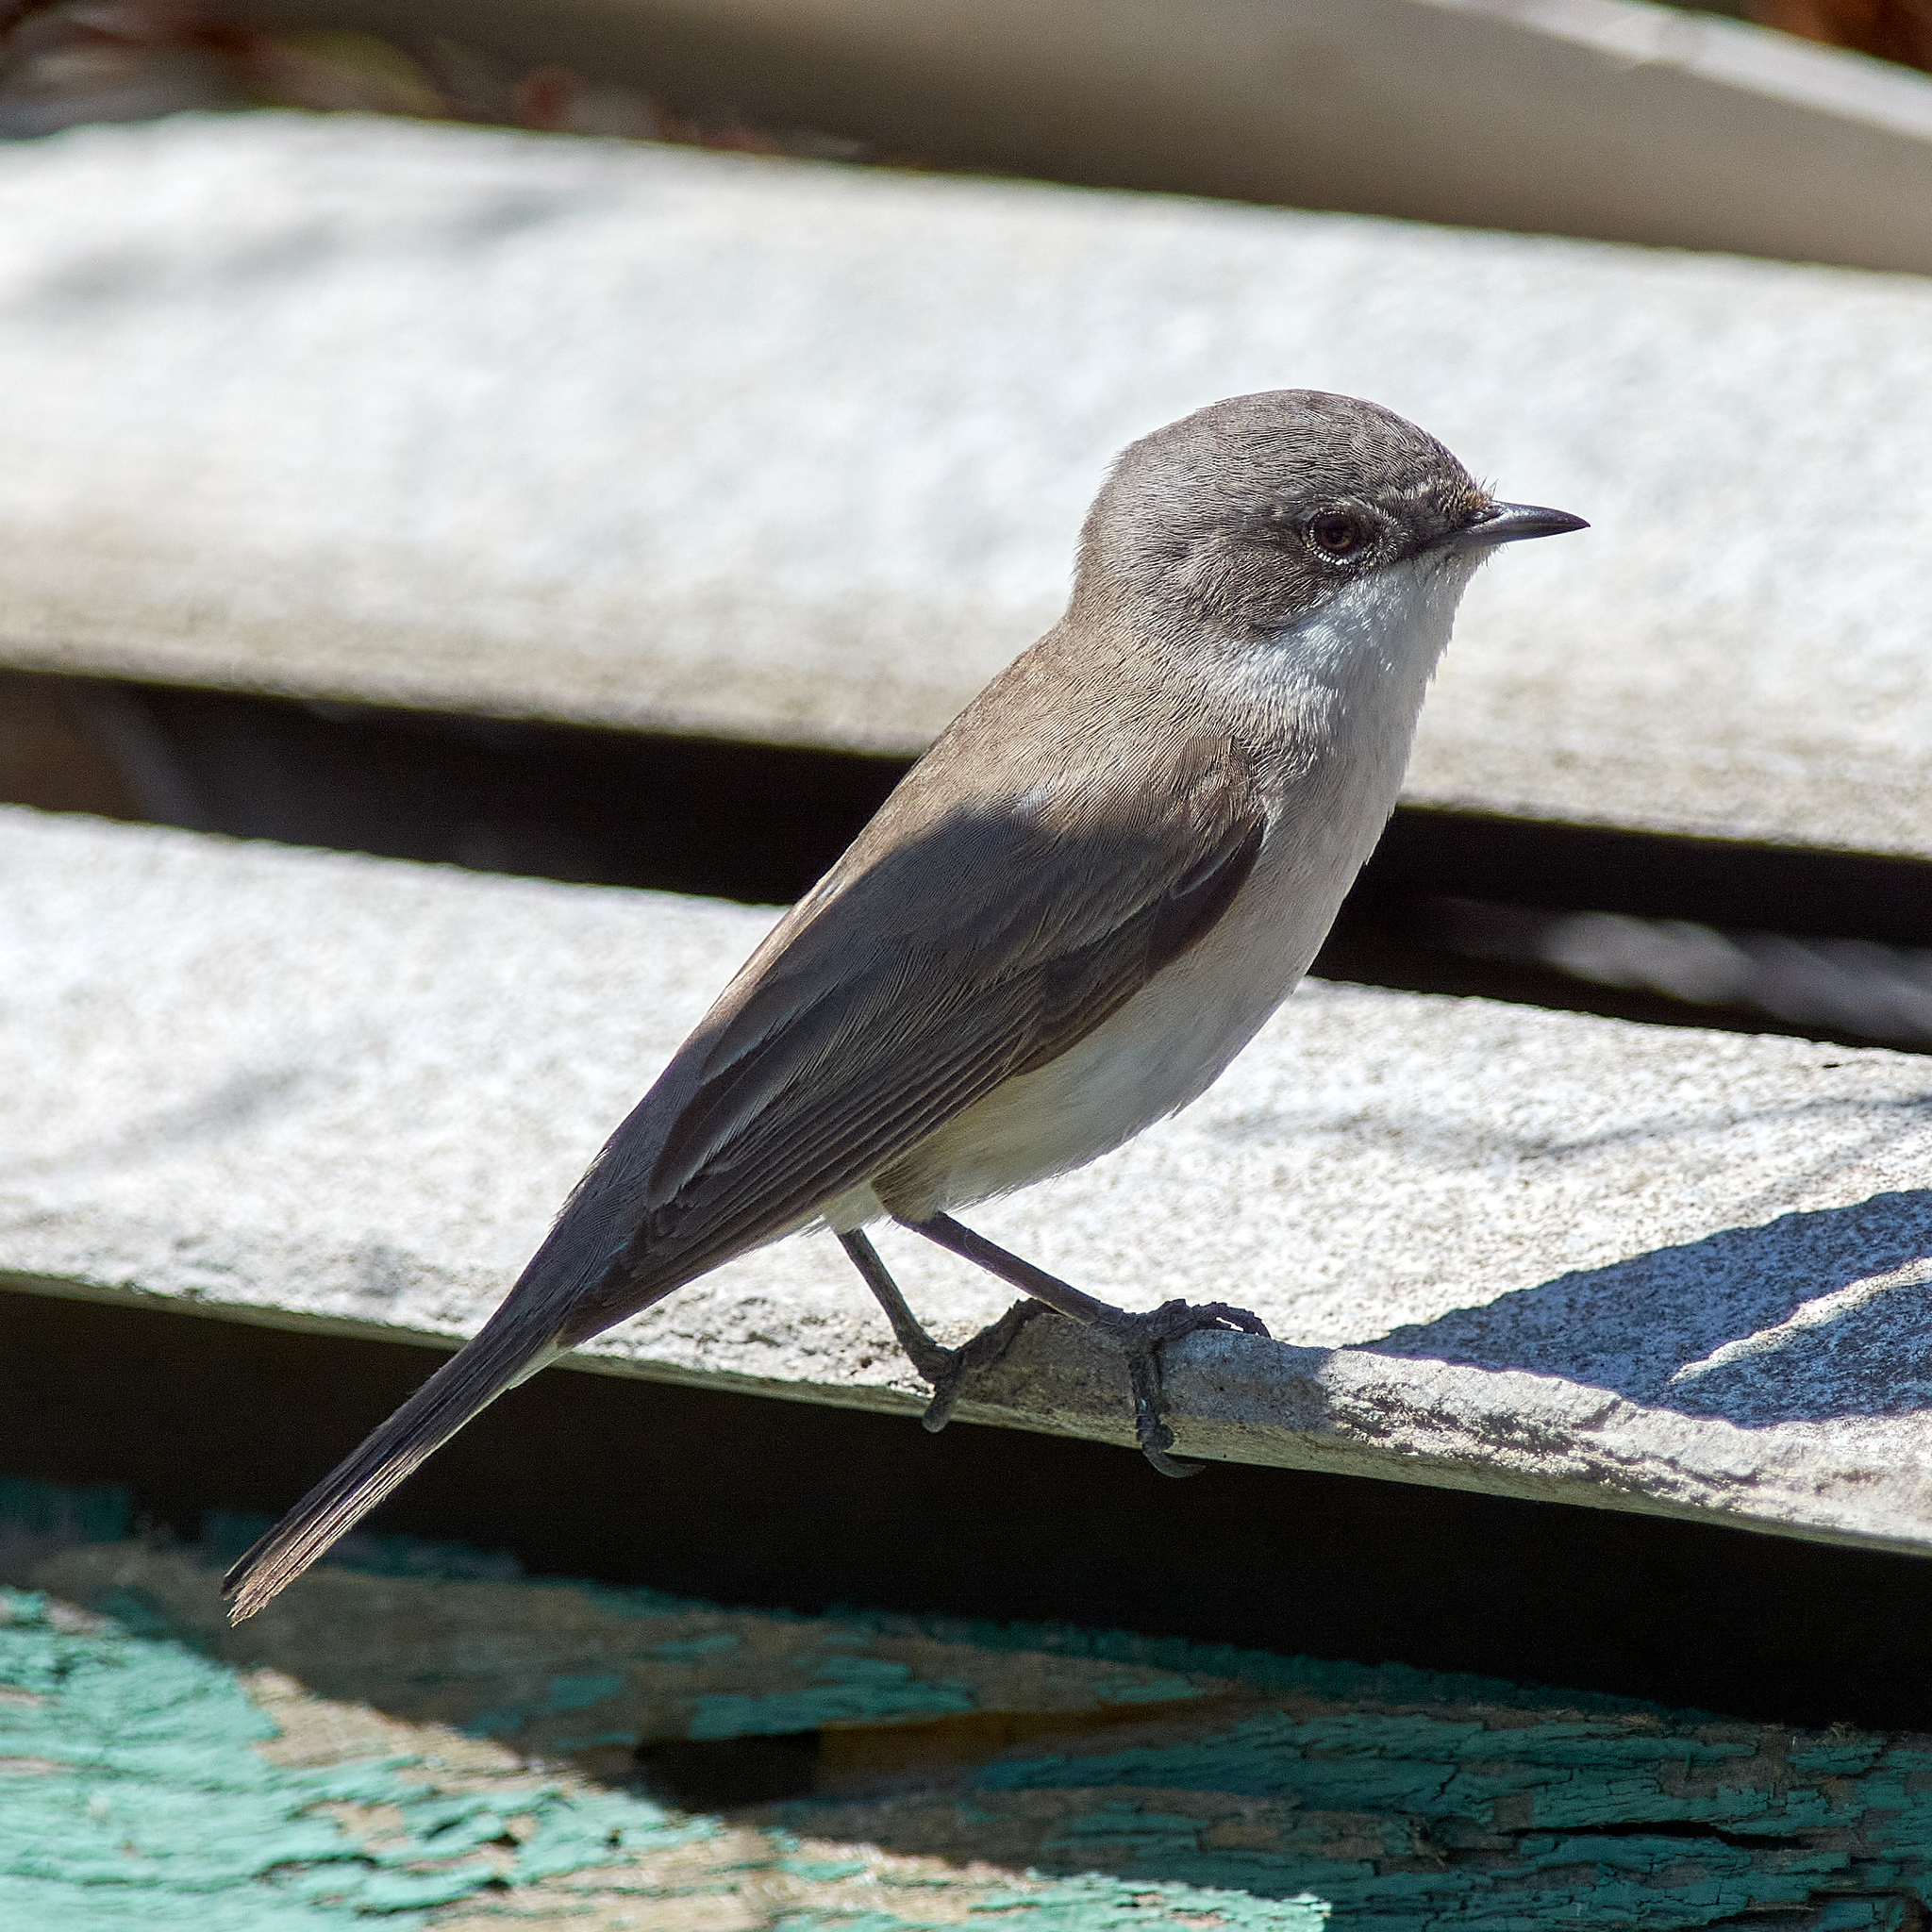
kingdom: Animalia
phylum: Chordata
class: Aves
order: Passeriformes
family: Sylviidae
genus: Sylvia
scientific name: Sylvia curruca
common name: Lesser whitethroat
